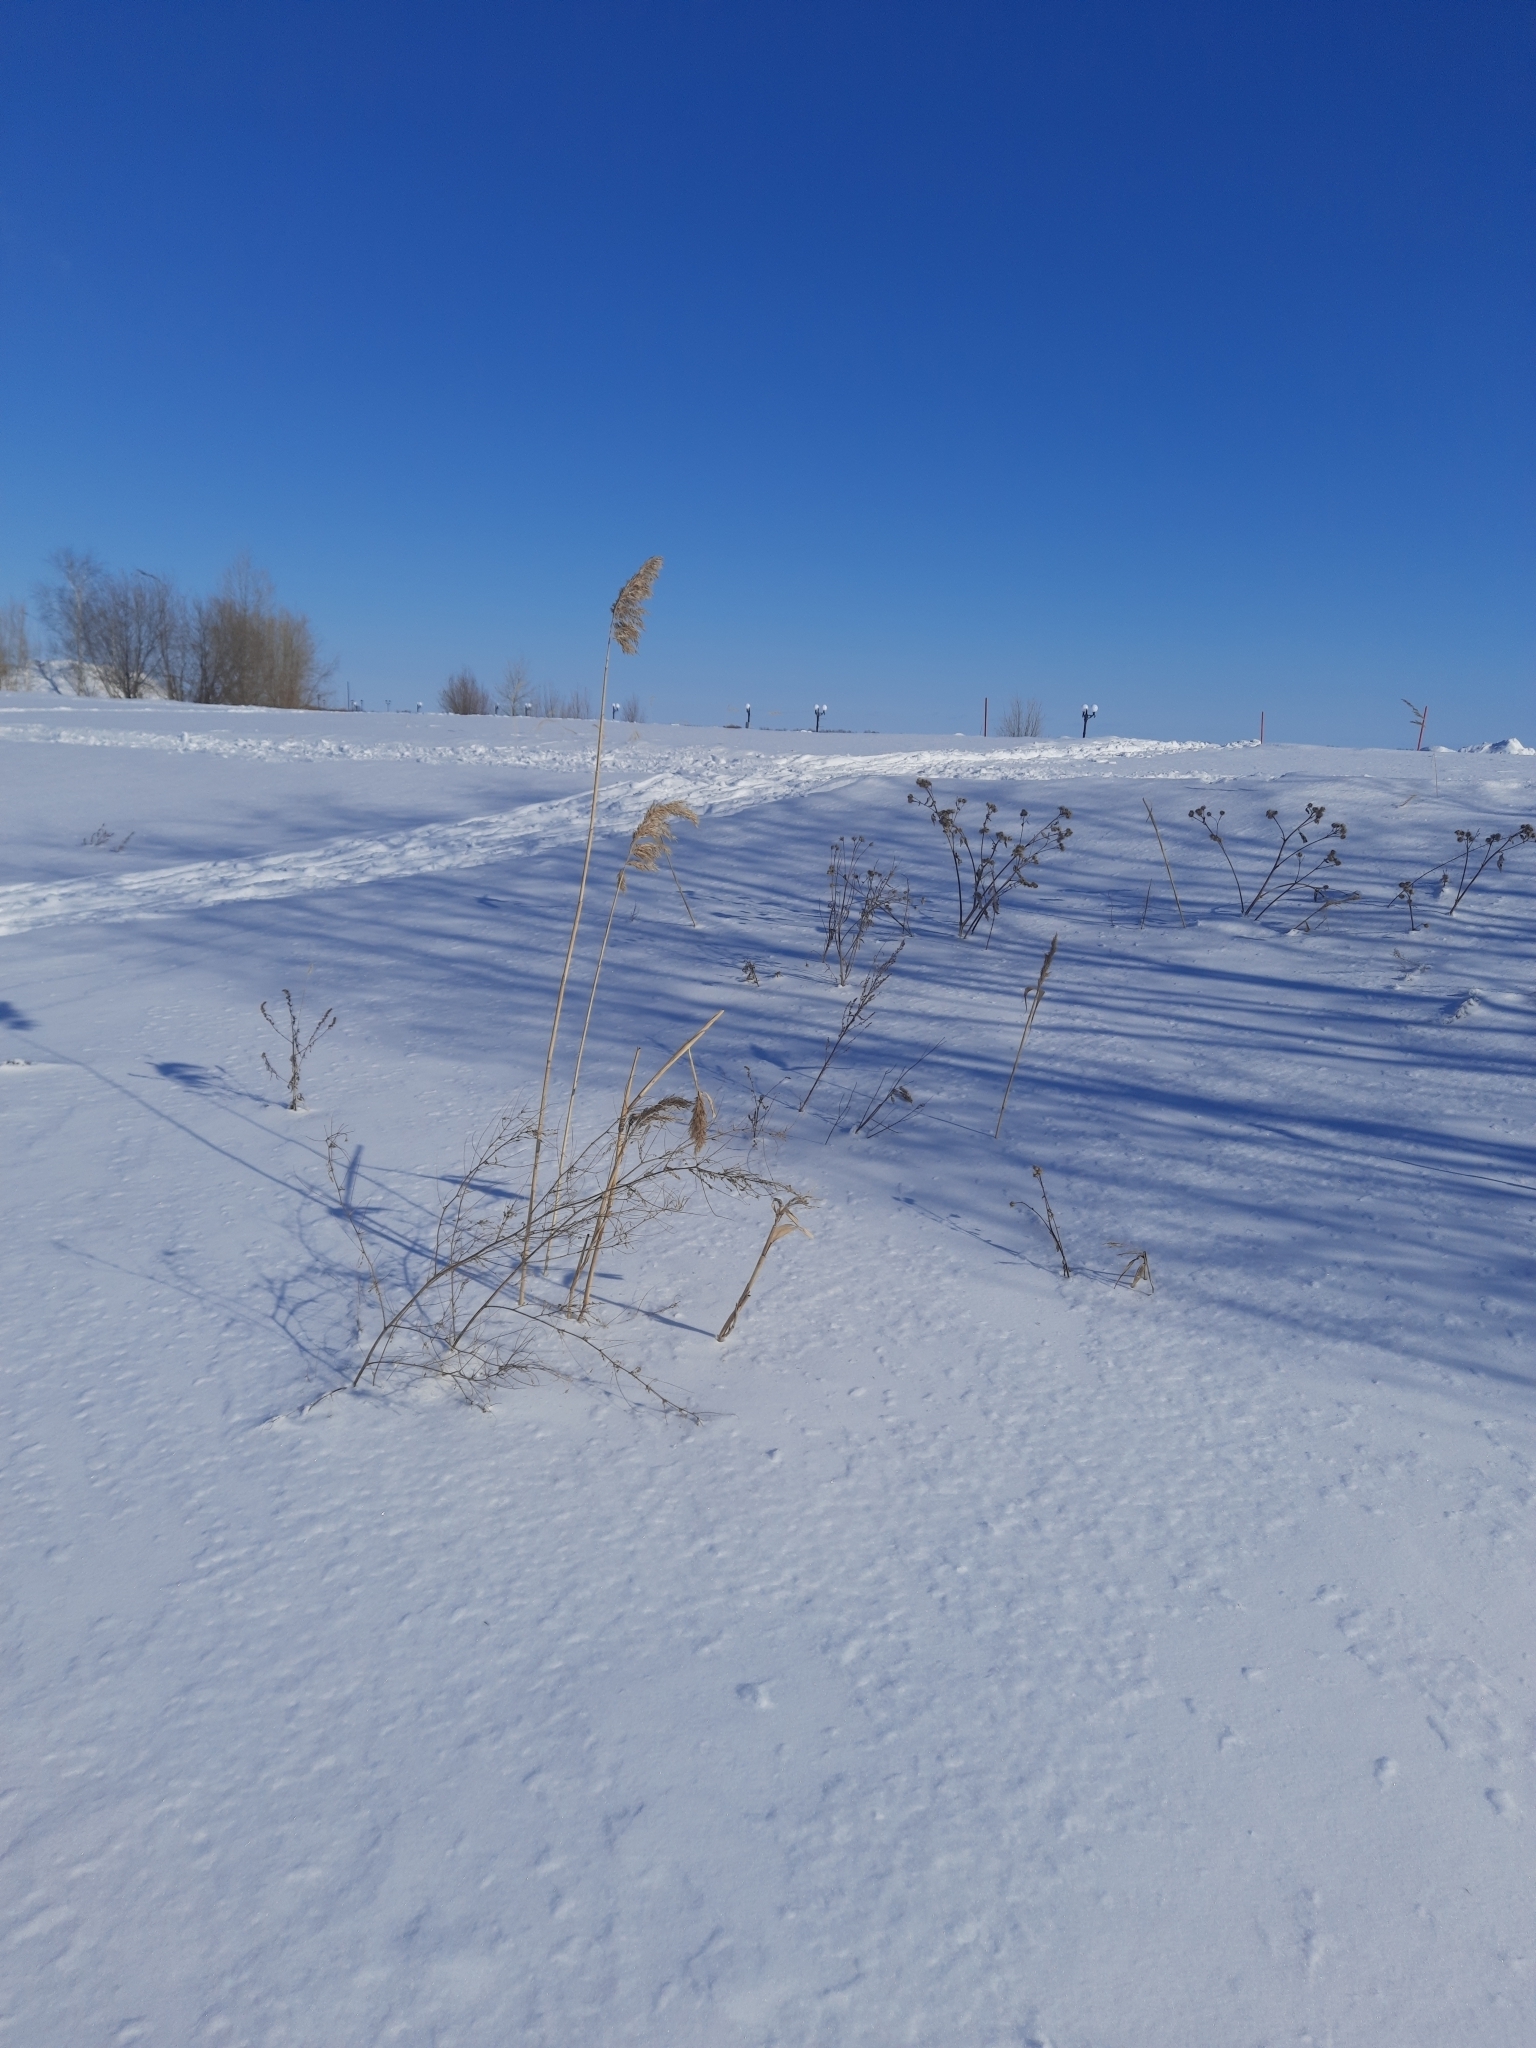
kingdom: Plantae
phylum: Tracheophyta
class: Liliopsida
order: Poales
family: Poaceae
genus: Phragmites
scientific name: Phragmites australis
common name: Common reed
